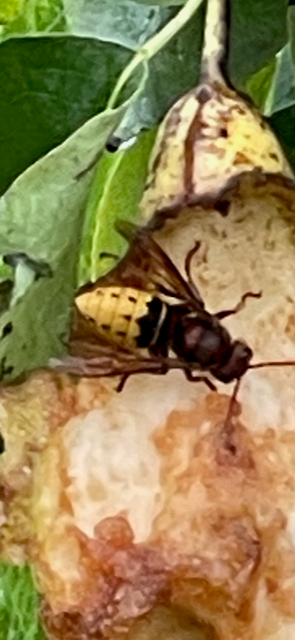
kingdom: Animalia
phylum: Arthropoda
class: Insecta
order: Hymenoptera
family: Vespidae
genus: Vespa
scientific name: Vespa crabro
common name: Hornet
